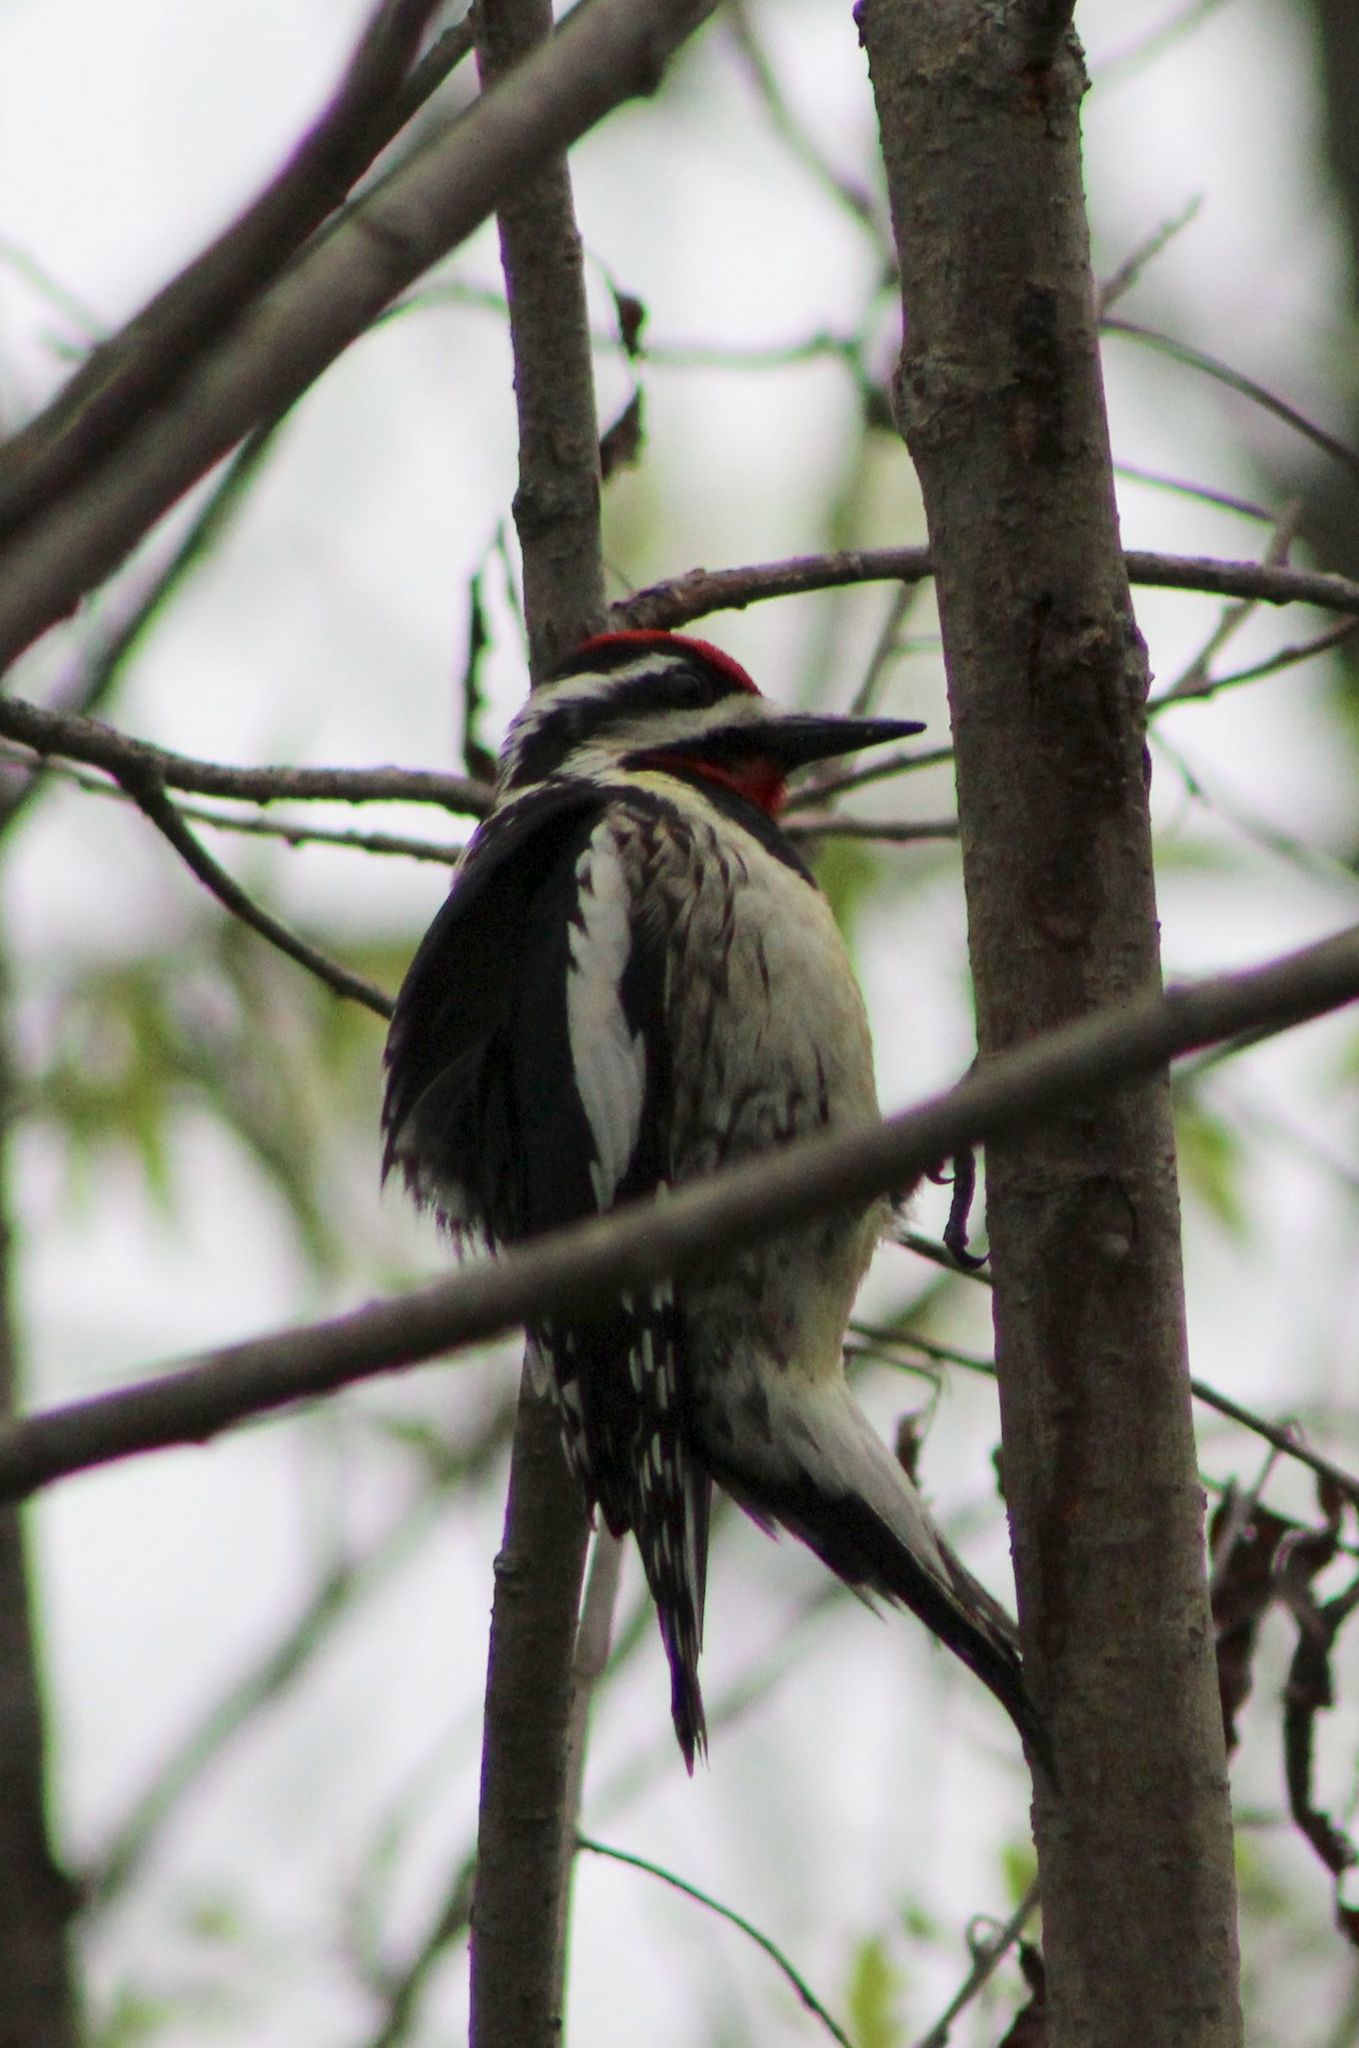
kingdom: Animalia
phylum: Chordata
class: Aves
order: Piciformes
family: Picidae
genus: Sphyrapicus
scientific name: Sphyrapicus varius
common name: Yellow-bellied sapsucker
